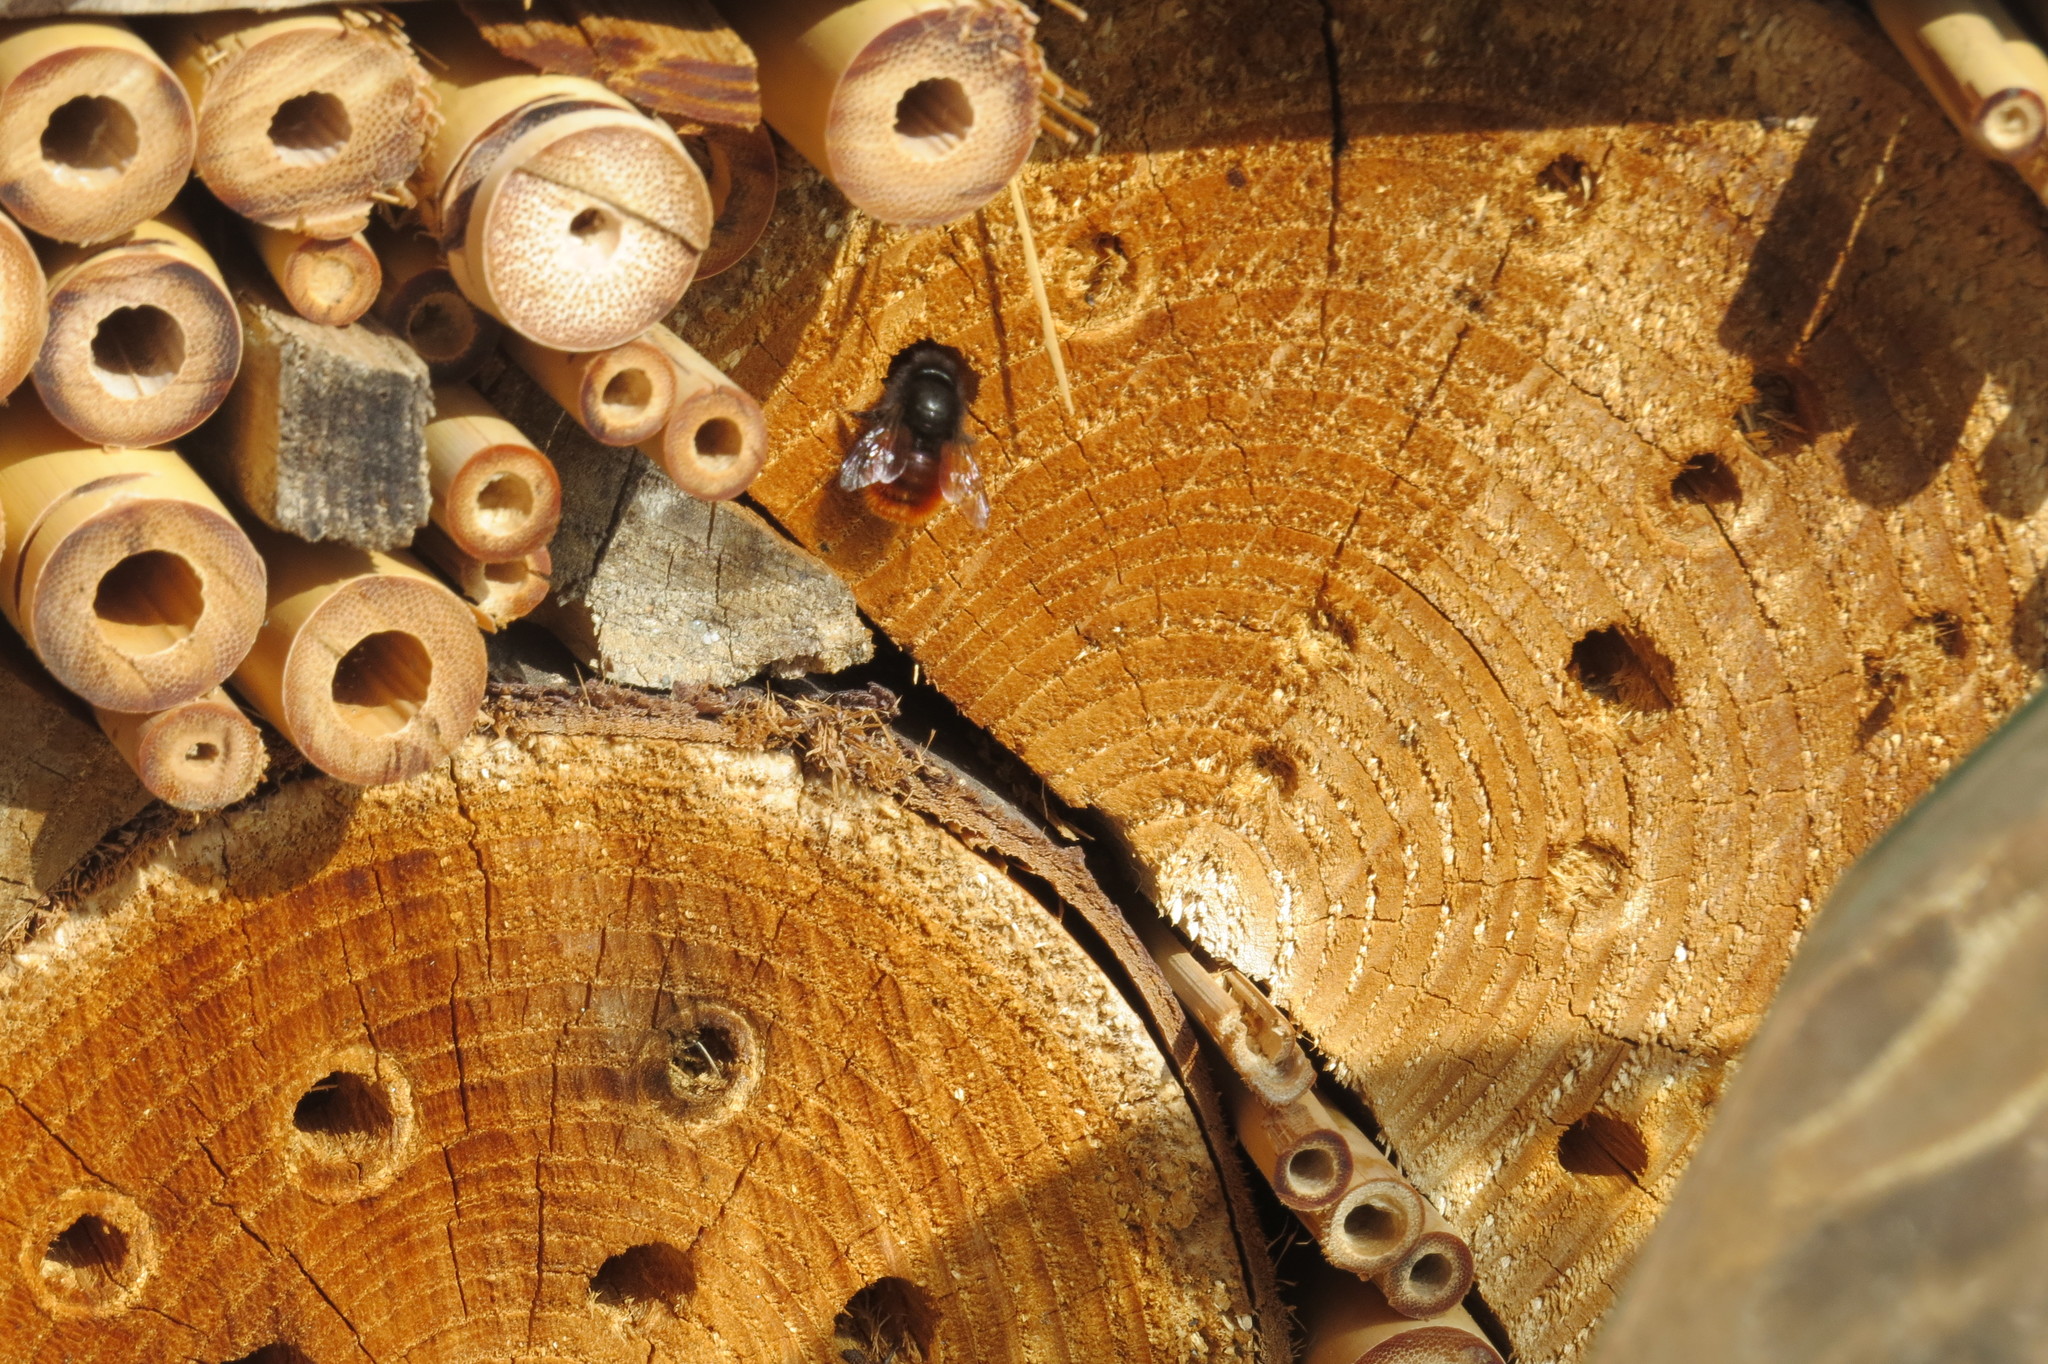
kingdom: Animalia
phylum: Arthropoda
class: Insecta
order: Hymenoptera
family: Megachilidae
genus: Osmia
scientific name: Osmia cornuta
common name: Mason bee
